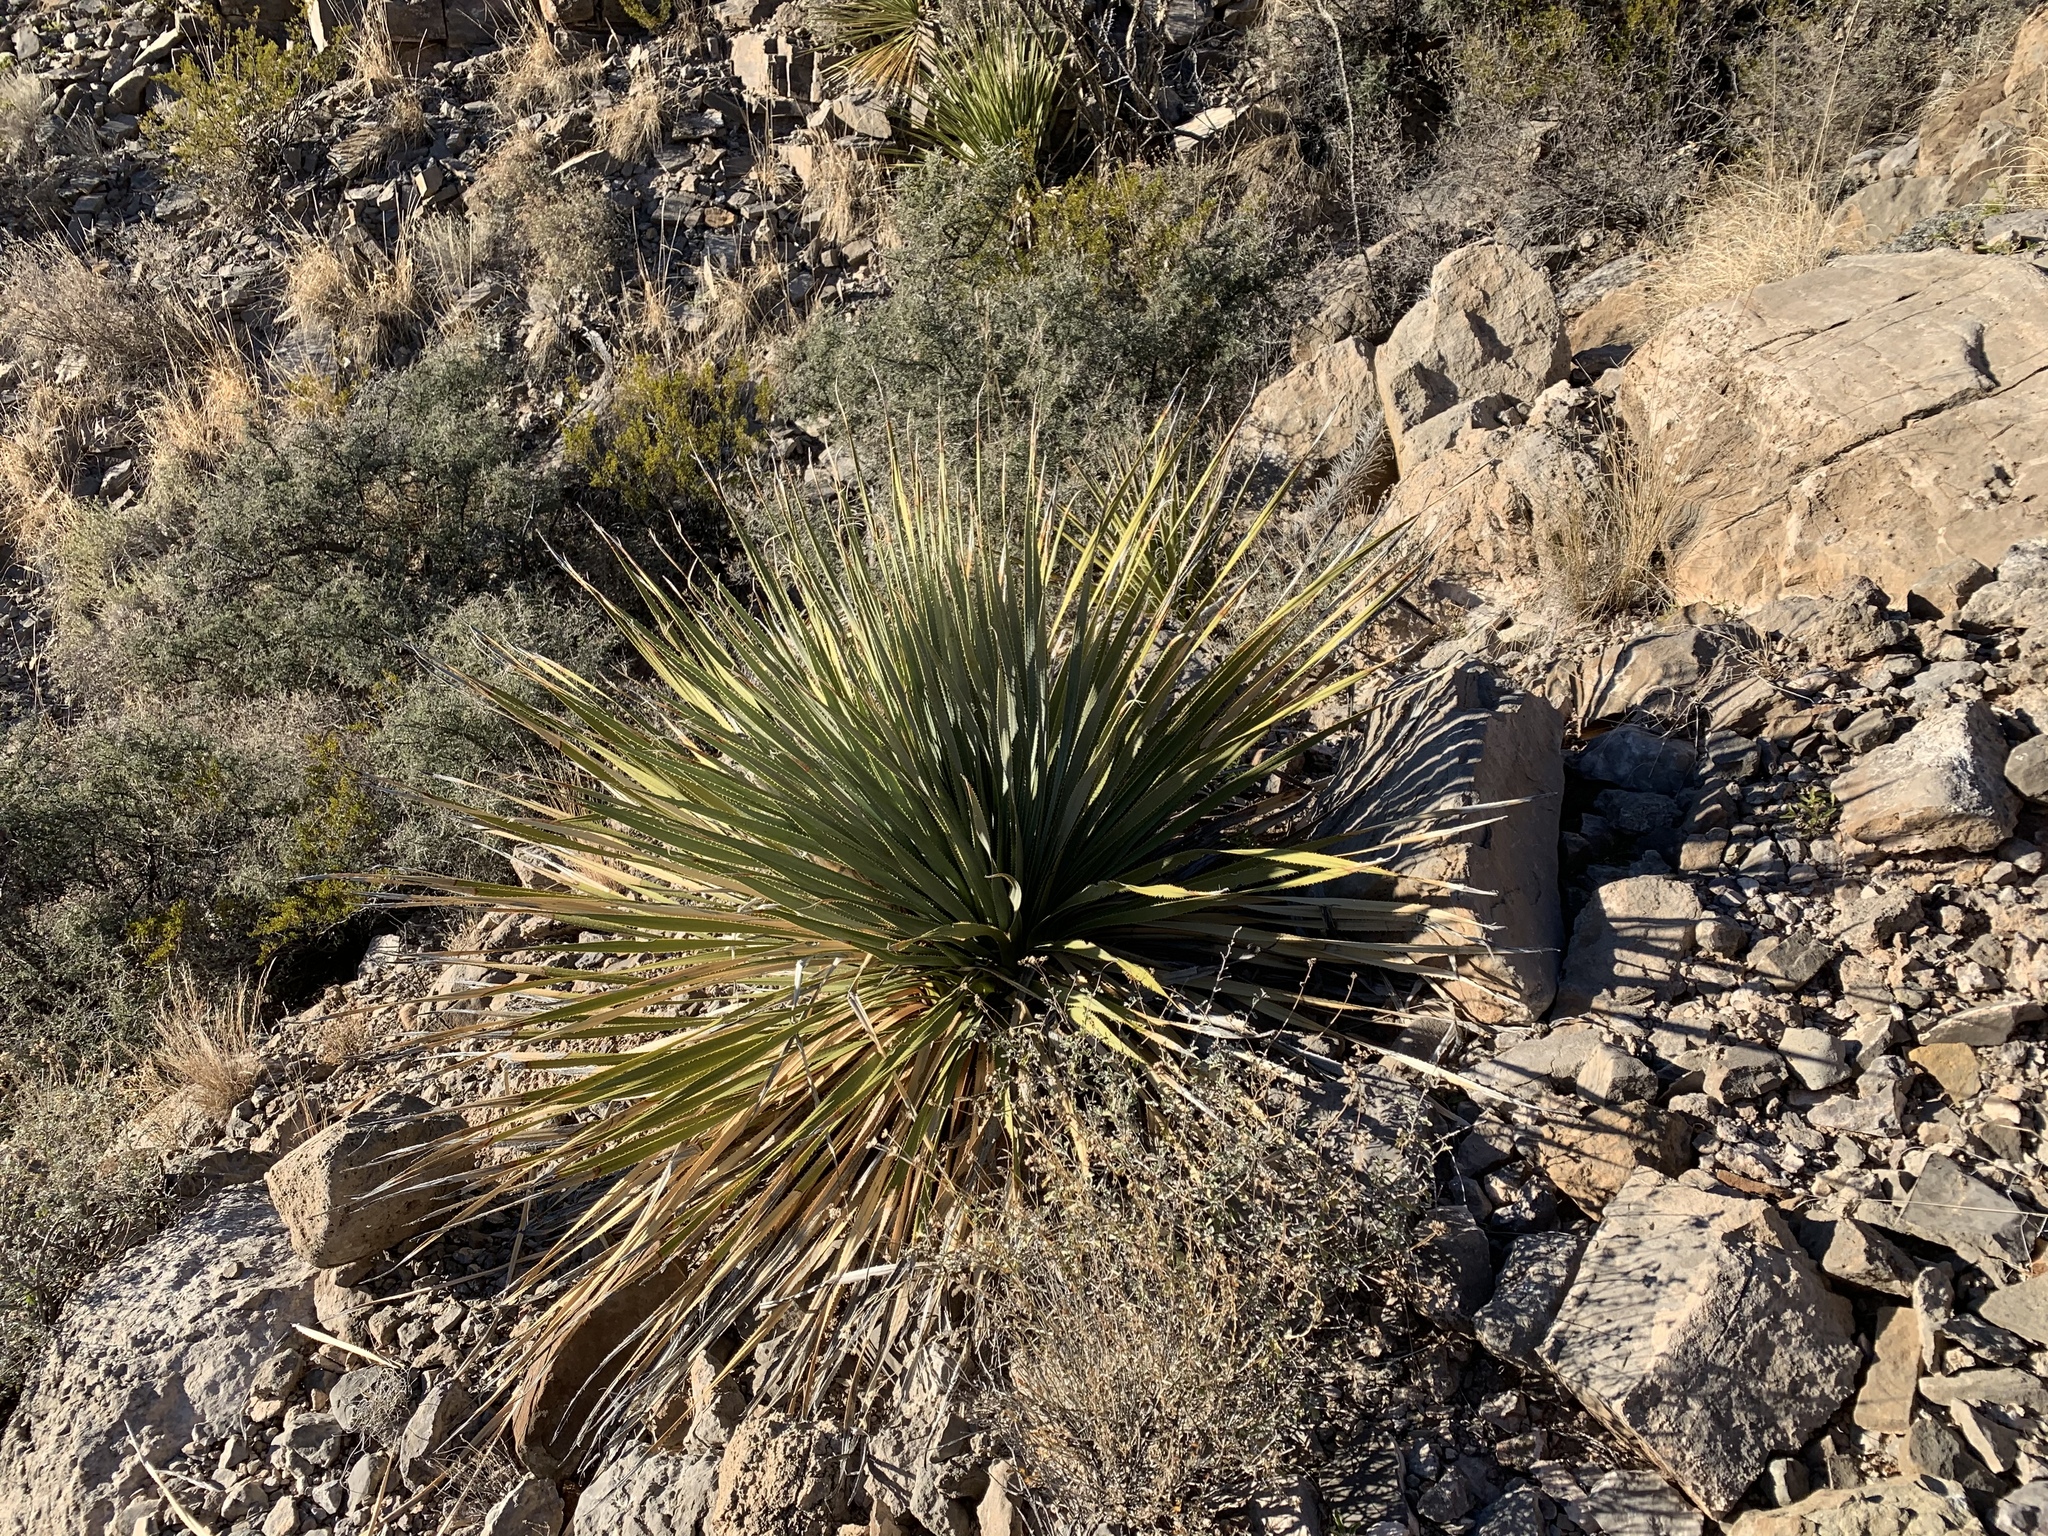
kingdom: Plantae
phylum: Tracheophyta
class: Liliopsida
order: Asparagales
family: Asparagaceae
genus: Dasylirion
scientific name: Dasylirion wheeleri
